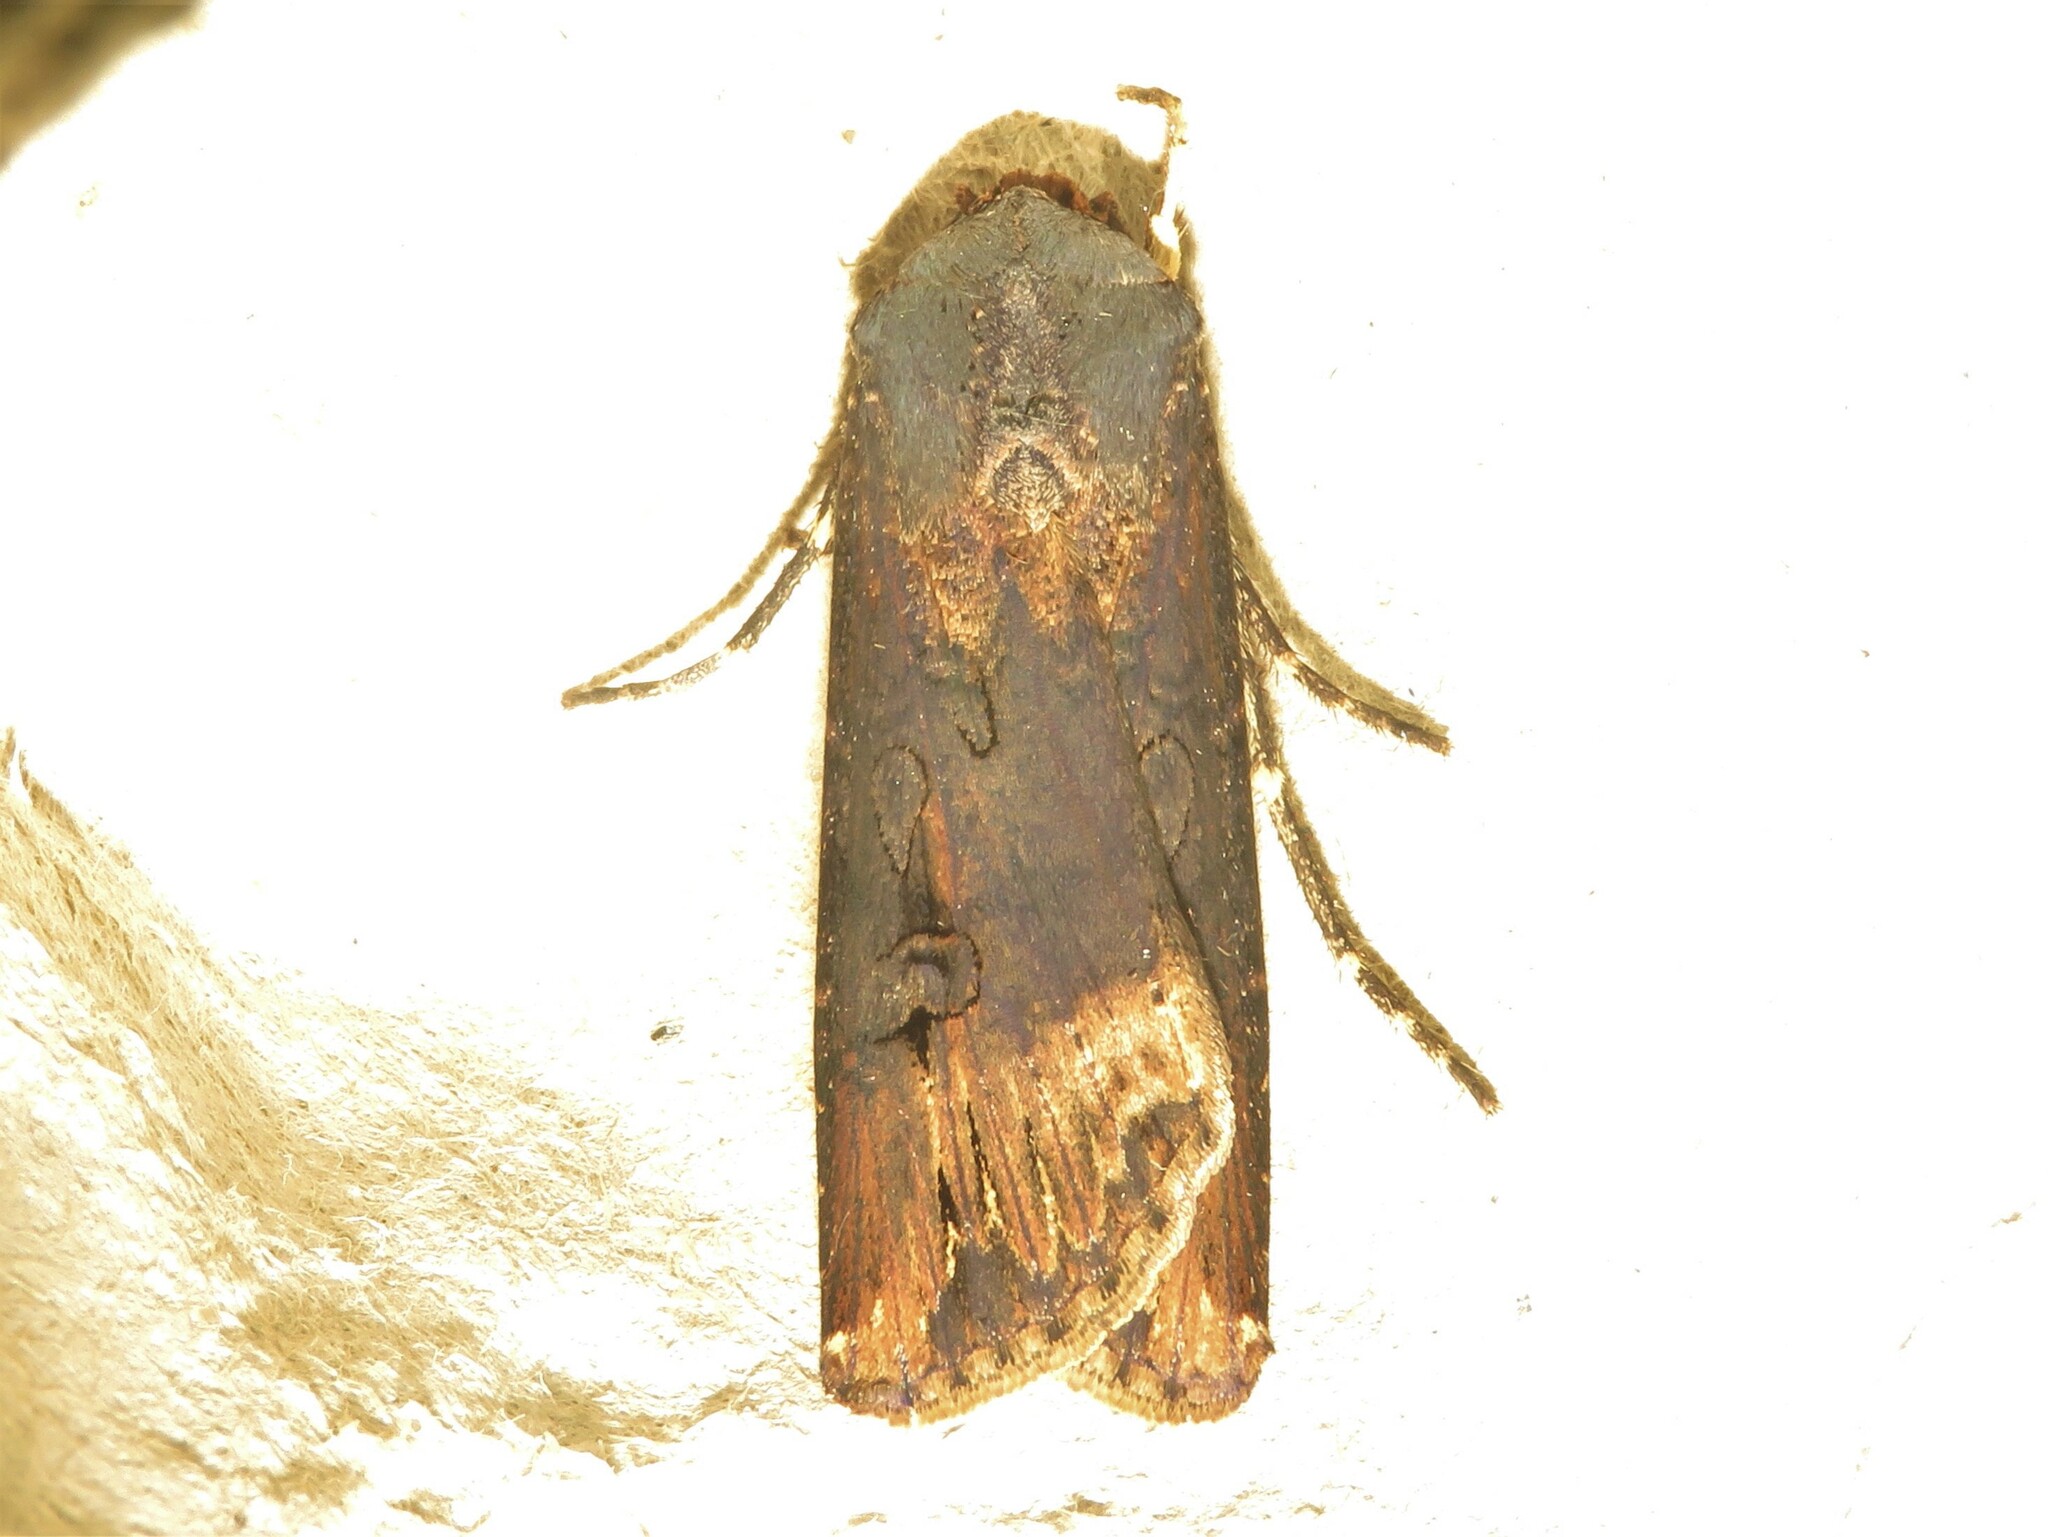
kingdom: Animalia
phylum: Arthropoda
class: Insecta
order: Lepidoptera
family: Noctuidae
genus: Agrotis
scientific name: Agrotis ipsilon
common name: Dark sword-grass
